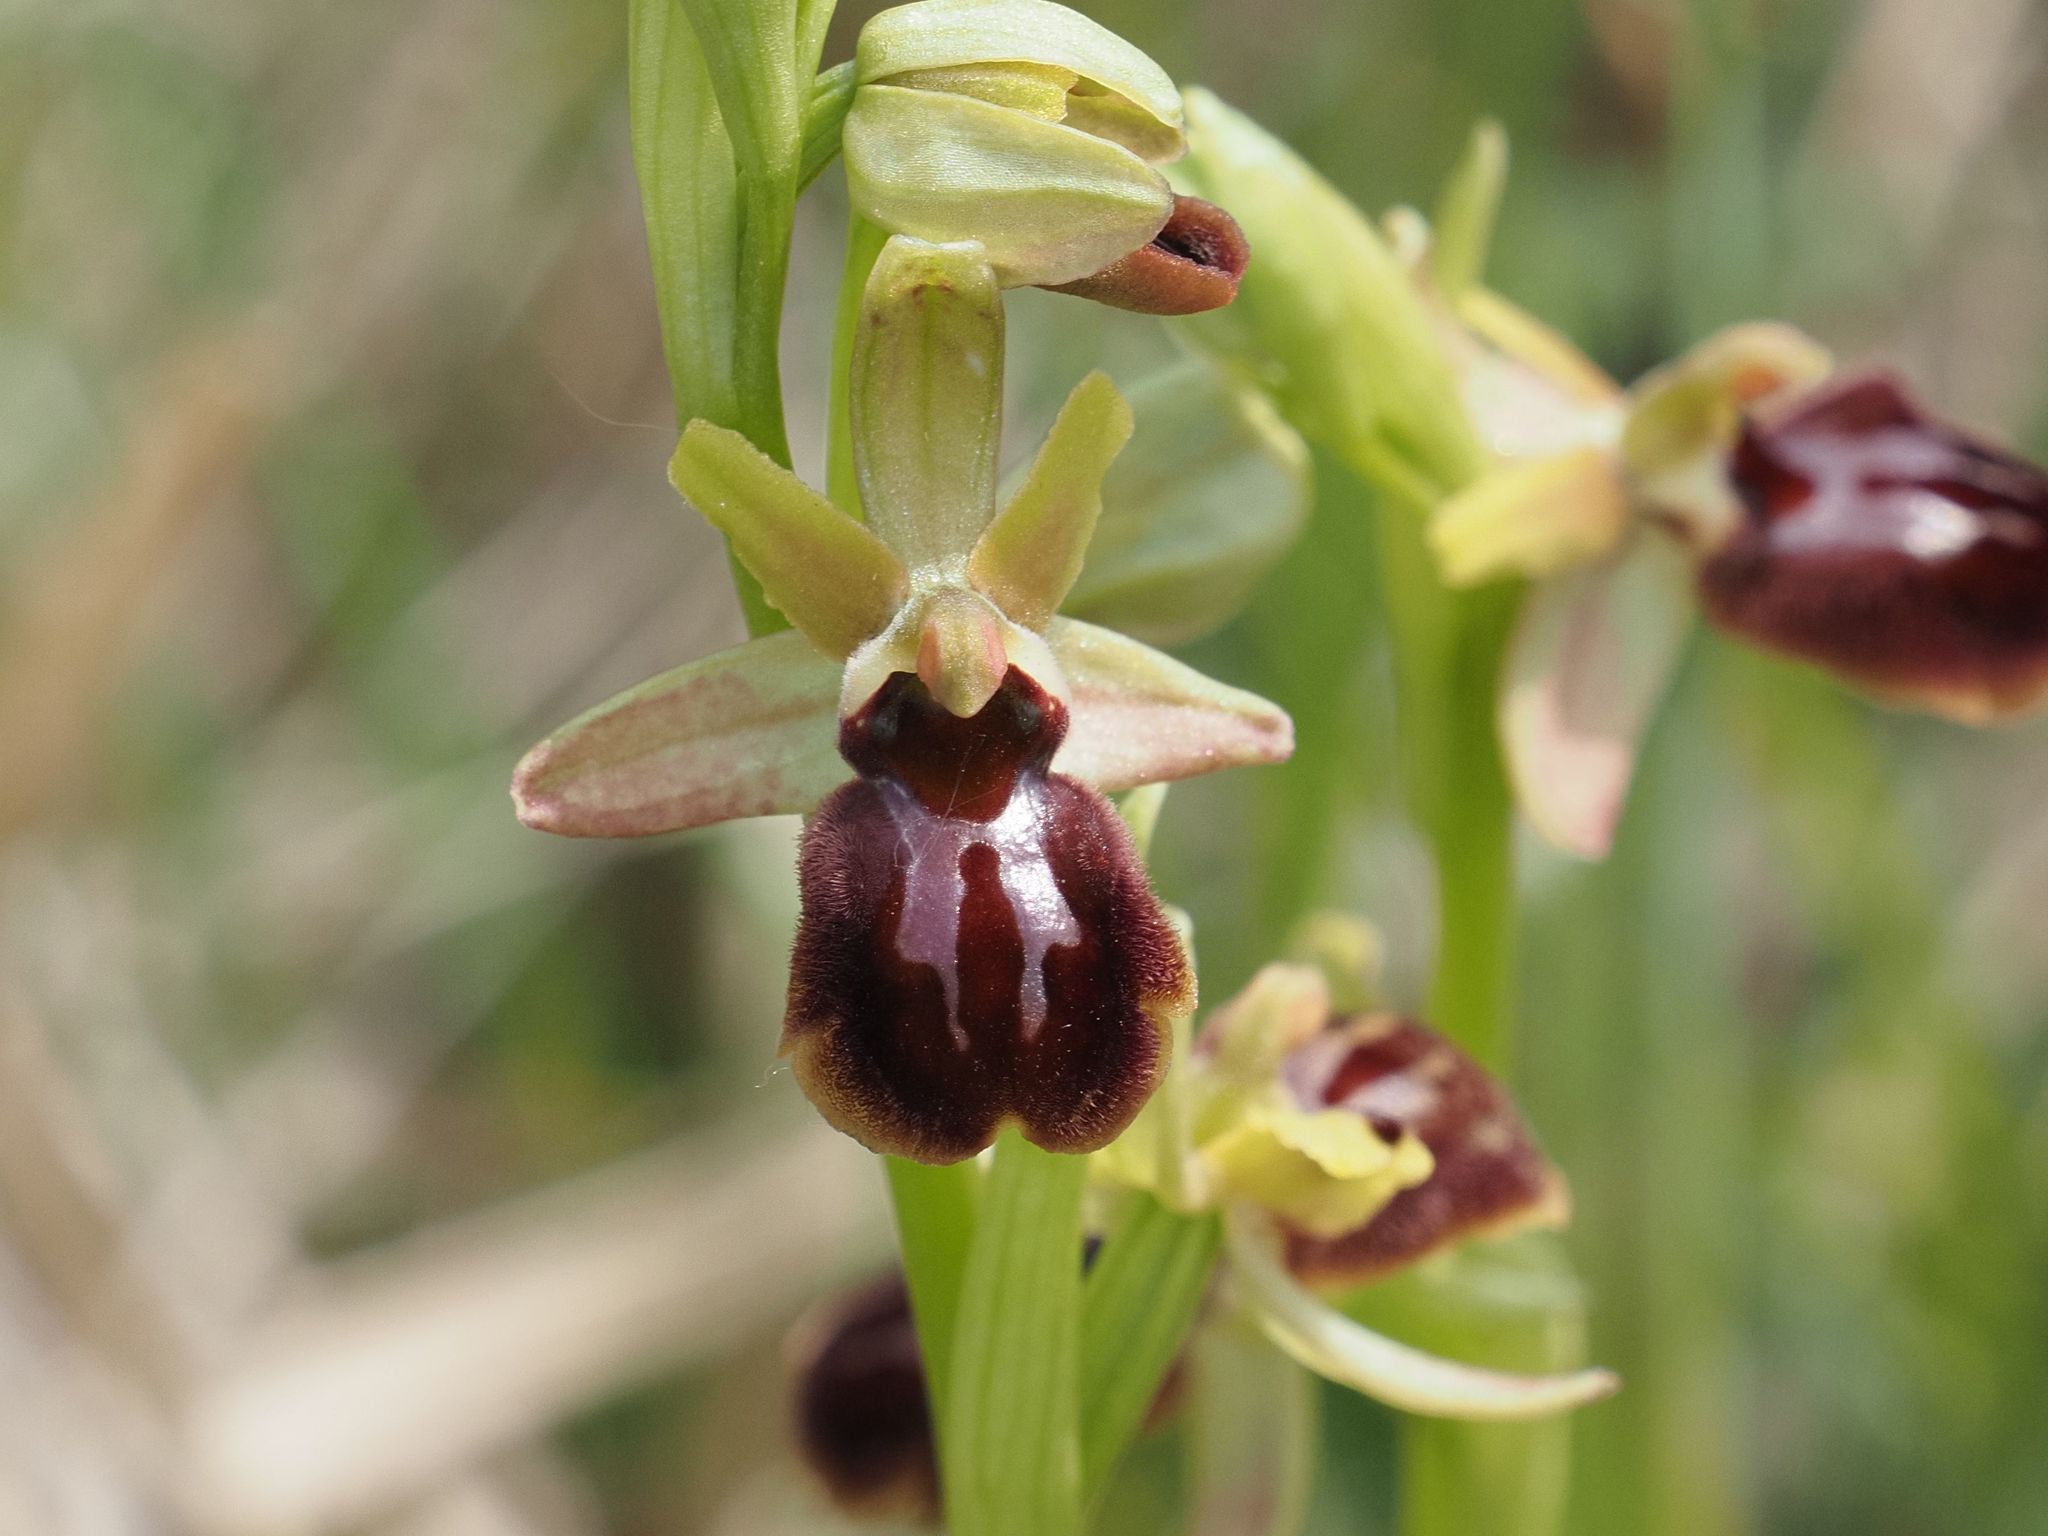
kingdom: Plantae
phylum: Tracheophyta
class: Liliopsida
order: Asparagales
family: Orchidaceae
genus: Ophrys
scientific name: Ophrys sphegodes
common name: Early spider-orchid
